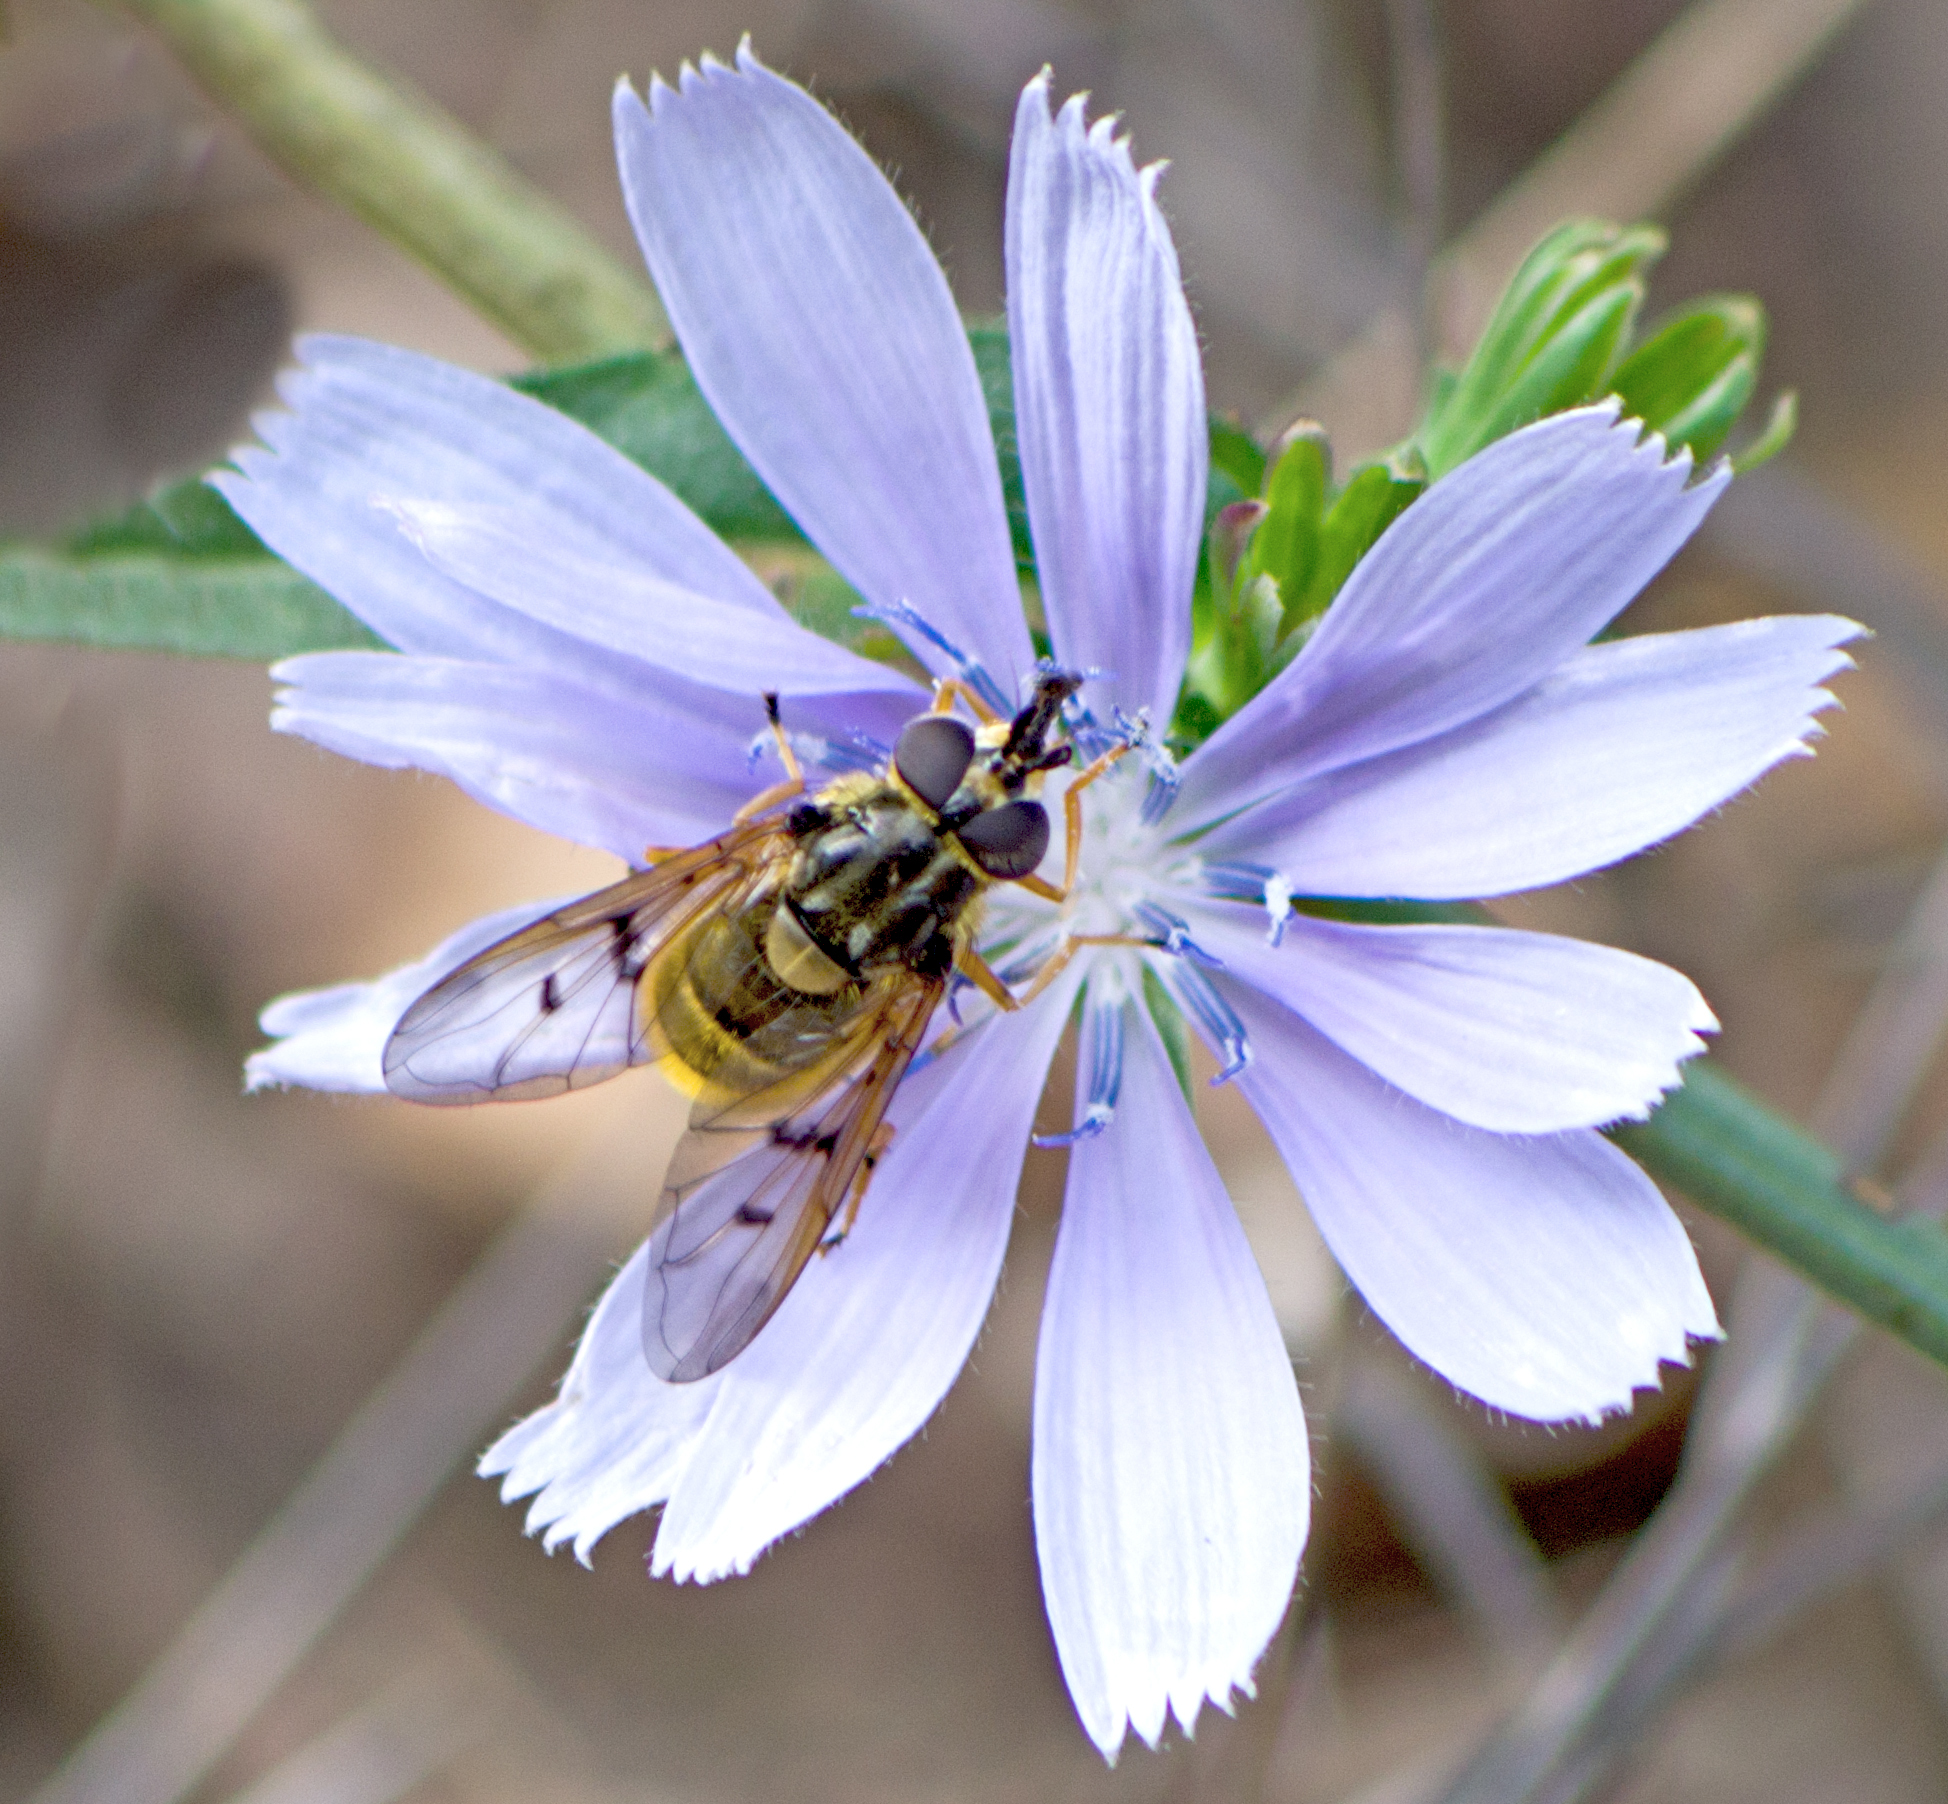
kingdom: Animalia
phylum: Arthropoda
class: Insecta
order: Diptera
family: Syrphidae
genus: Ferdinandea
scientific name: Ferdinandea aurea
